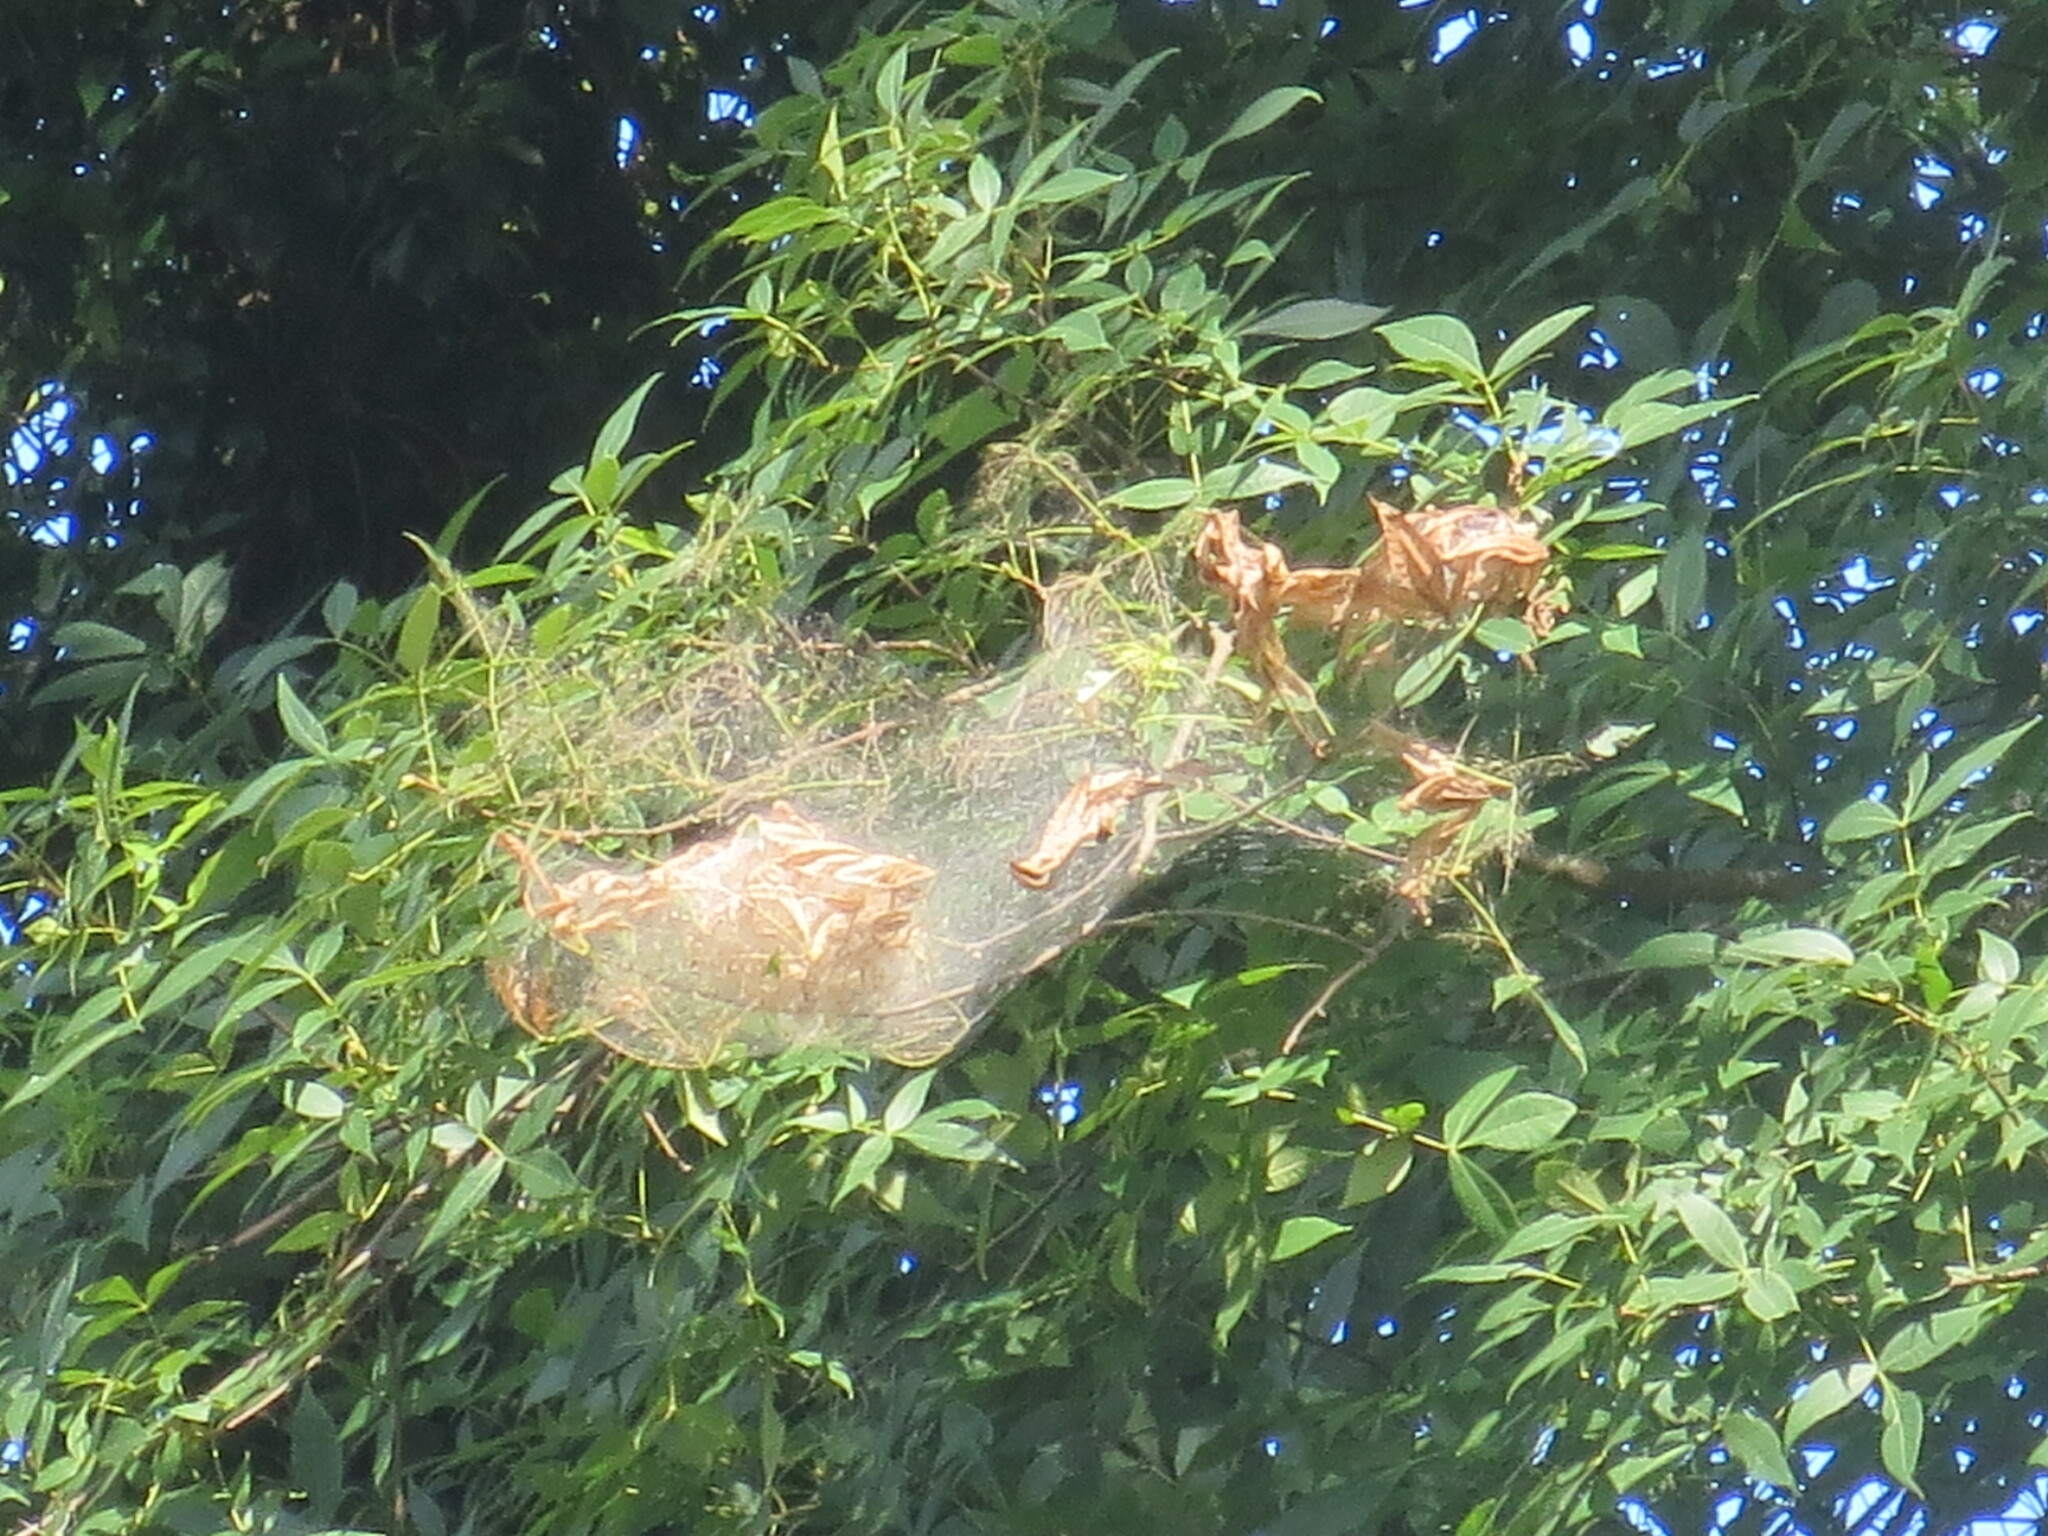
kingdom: Animalia
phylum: Arthropoda
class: Insecta
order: Lepidoptera
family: Erebidae
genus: Hyphantria
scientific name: Hyphantria cunea
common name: American white moth
